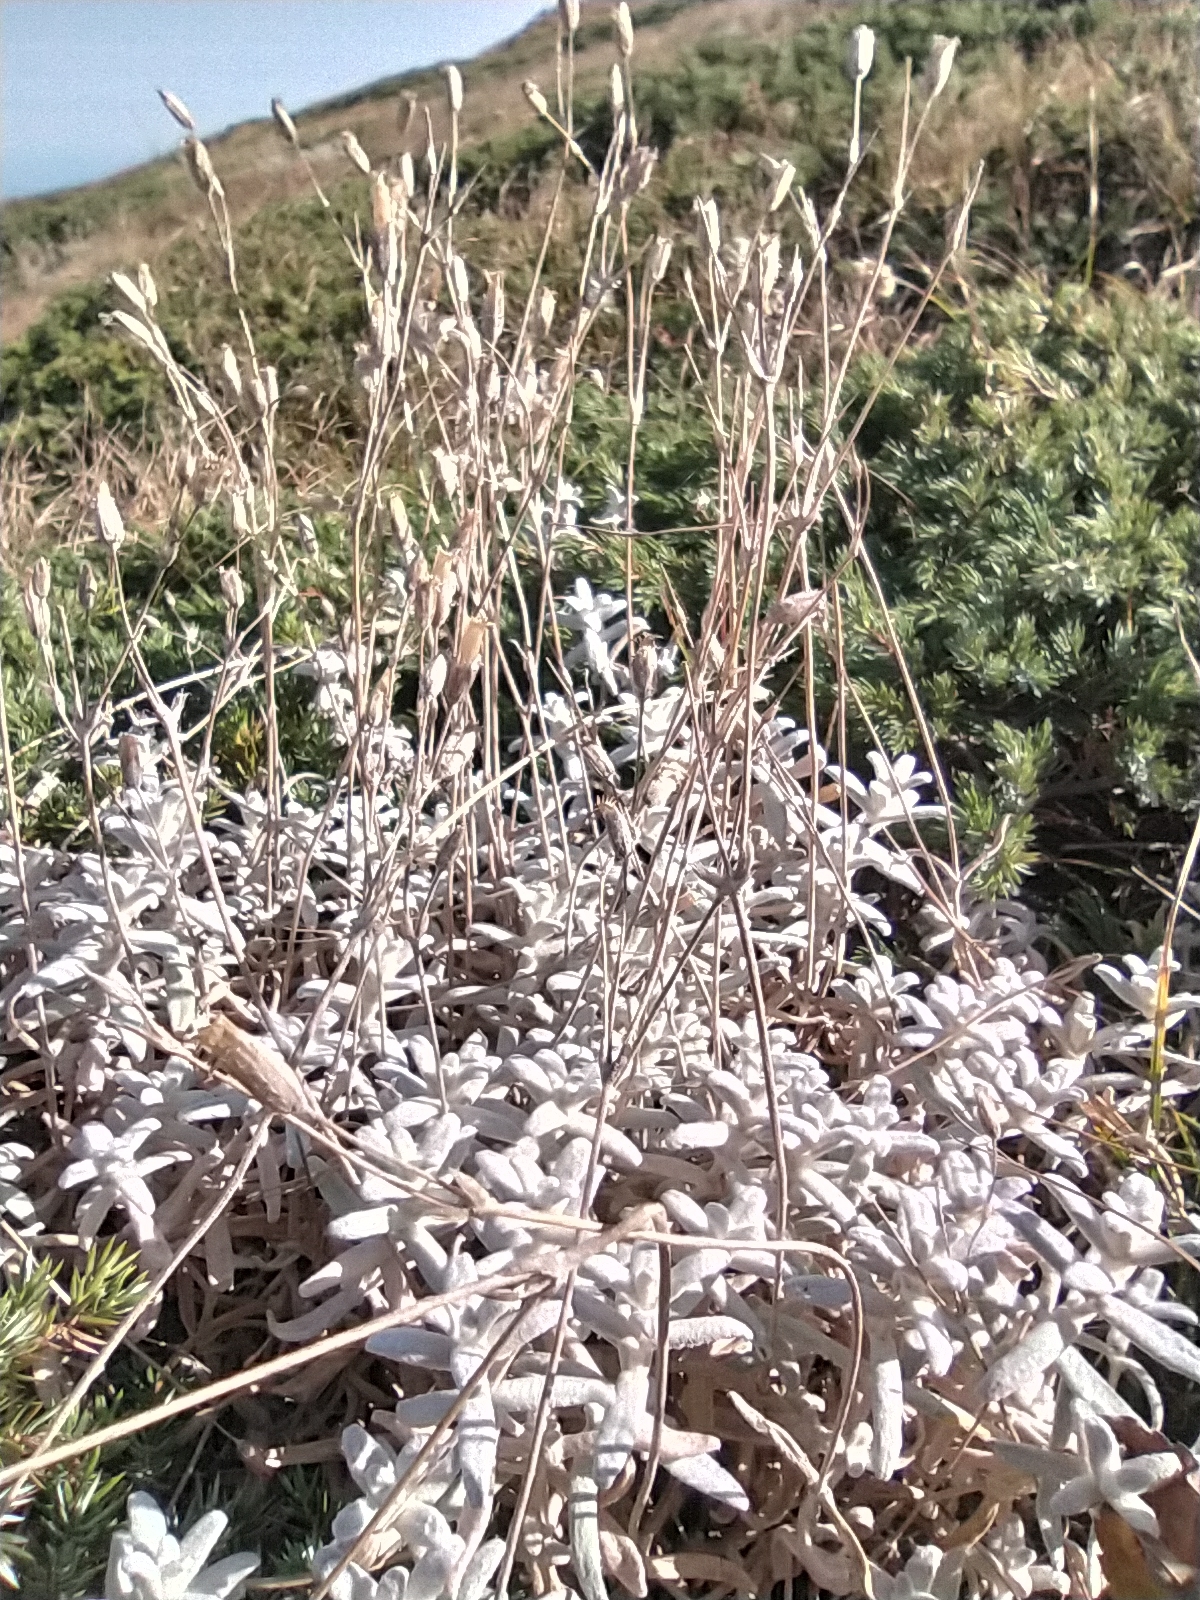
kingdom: Plantae
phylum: Tracheophyta
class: Magnoliopsida
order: Caryophyllales
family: Caryophyllaceae
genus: Cerastium
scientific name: Cerastium biebersteinii
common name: Snow-in-summer
